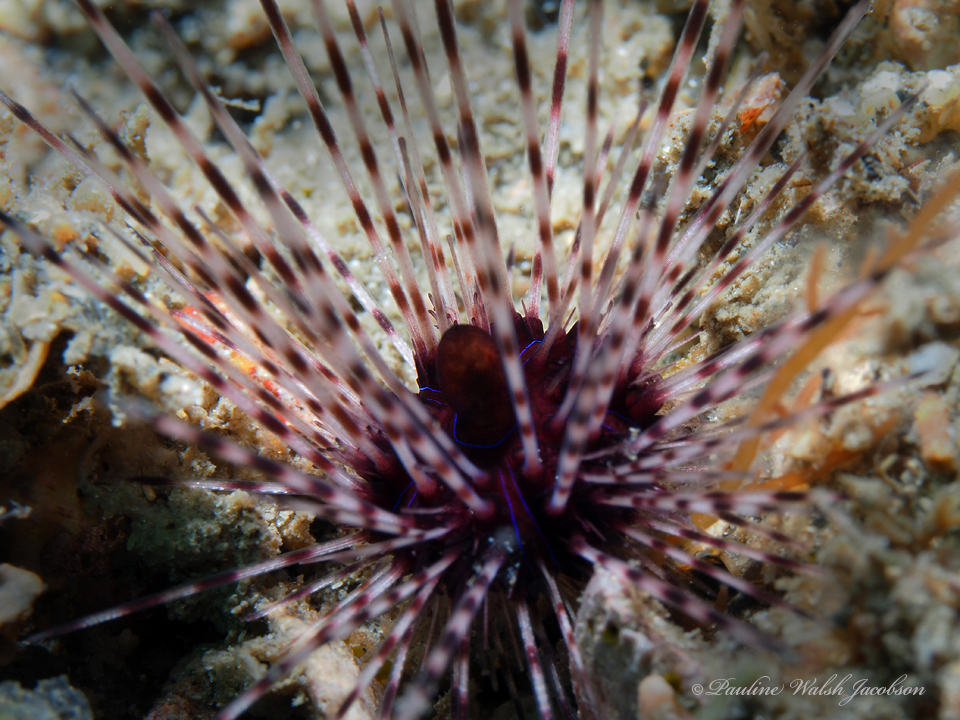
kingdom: Animalia
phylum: Echinodermata
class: Echinoidea
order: Diadematoida
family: Diadematidae
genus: Diadema
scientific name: Diadema antillarum
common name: Spiny urchin
